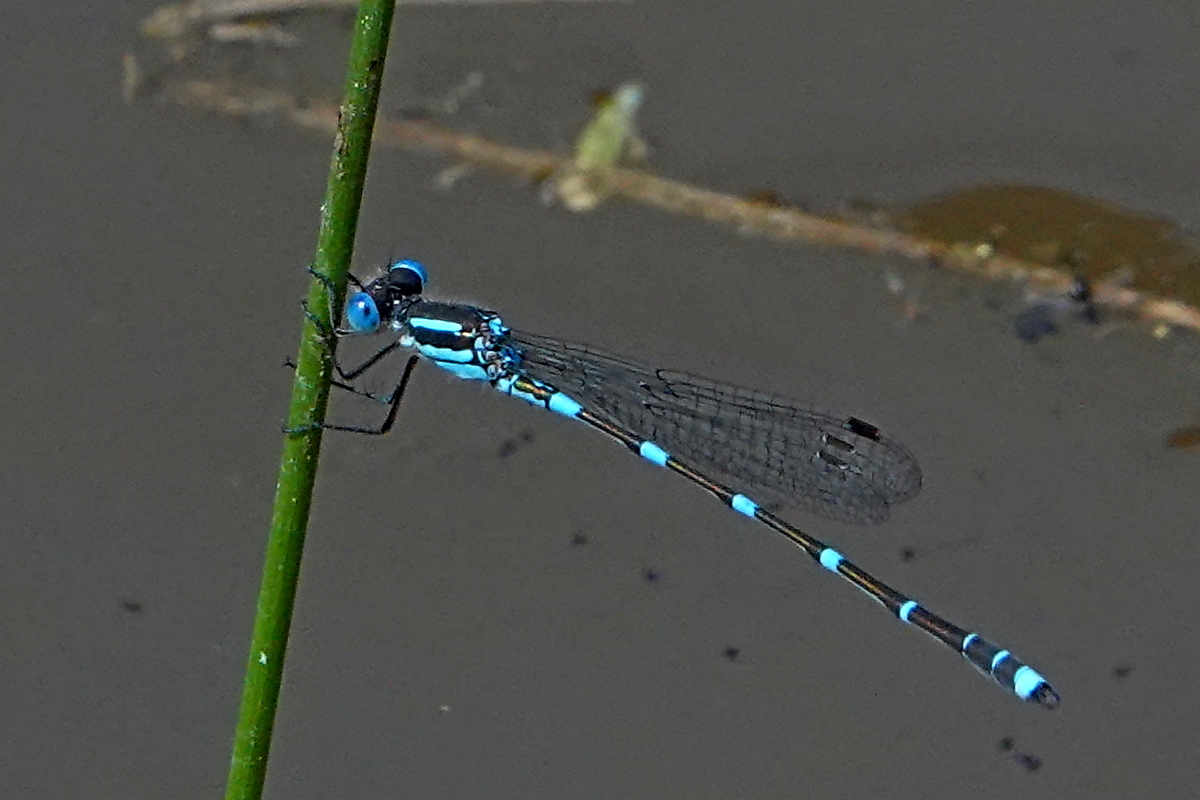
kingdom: Animalia
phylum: Arthropoda
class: Insecta
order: Odonata
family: Lestidae
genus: Austrolestes
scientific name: Austrolestes leda
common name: Wandering ringtail
